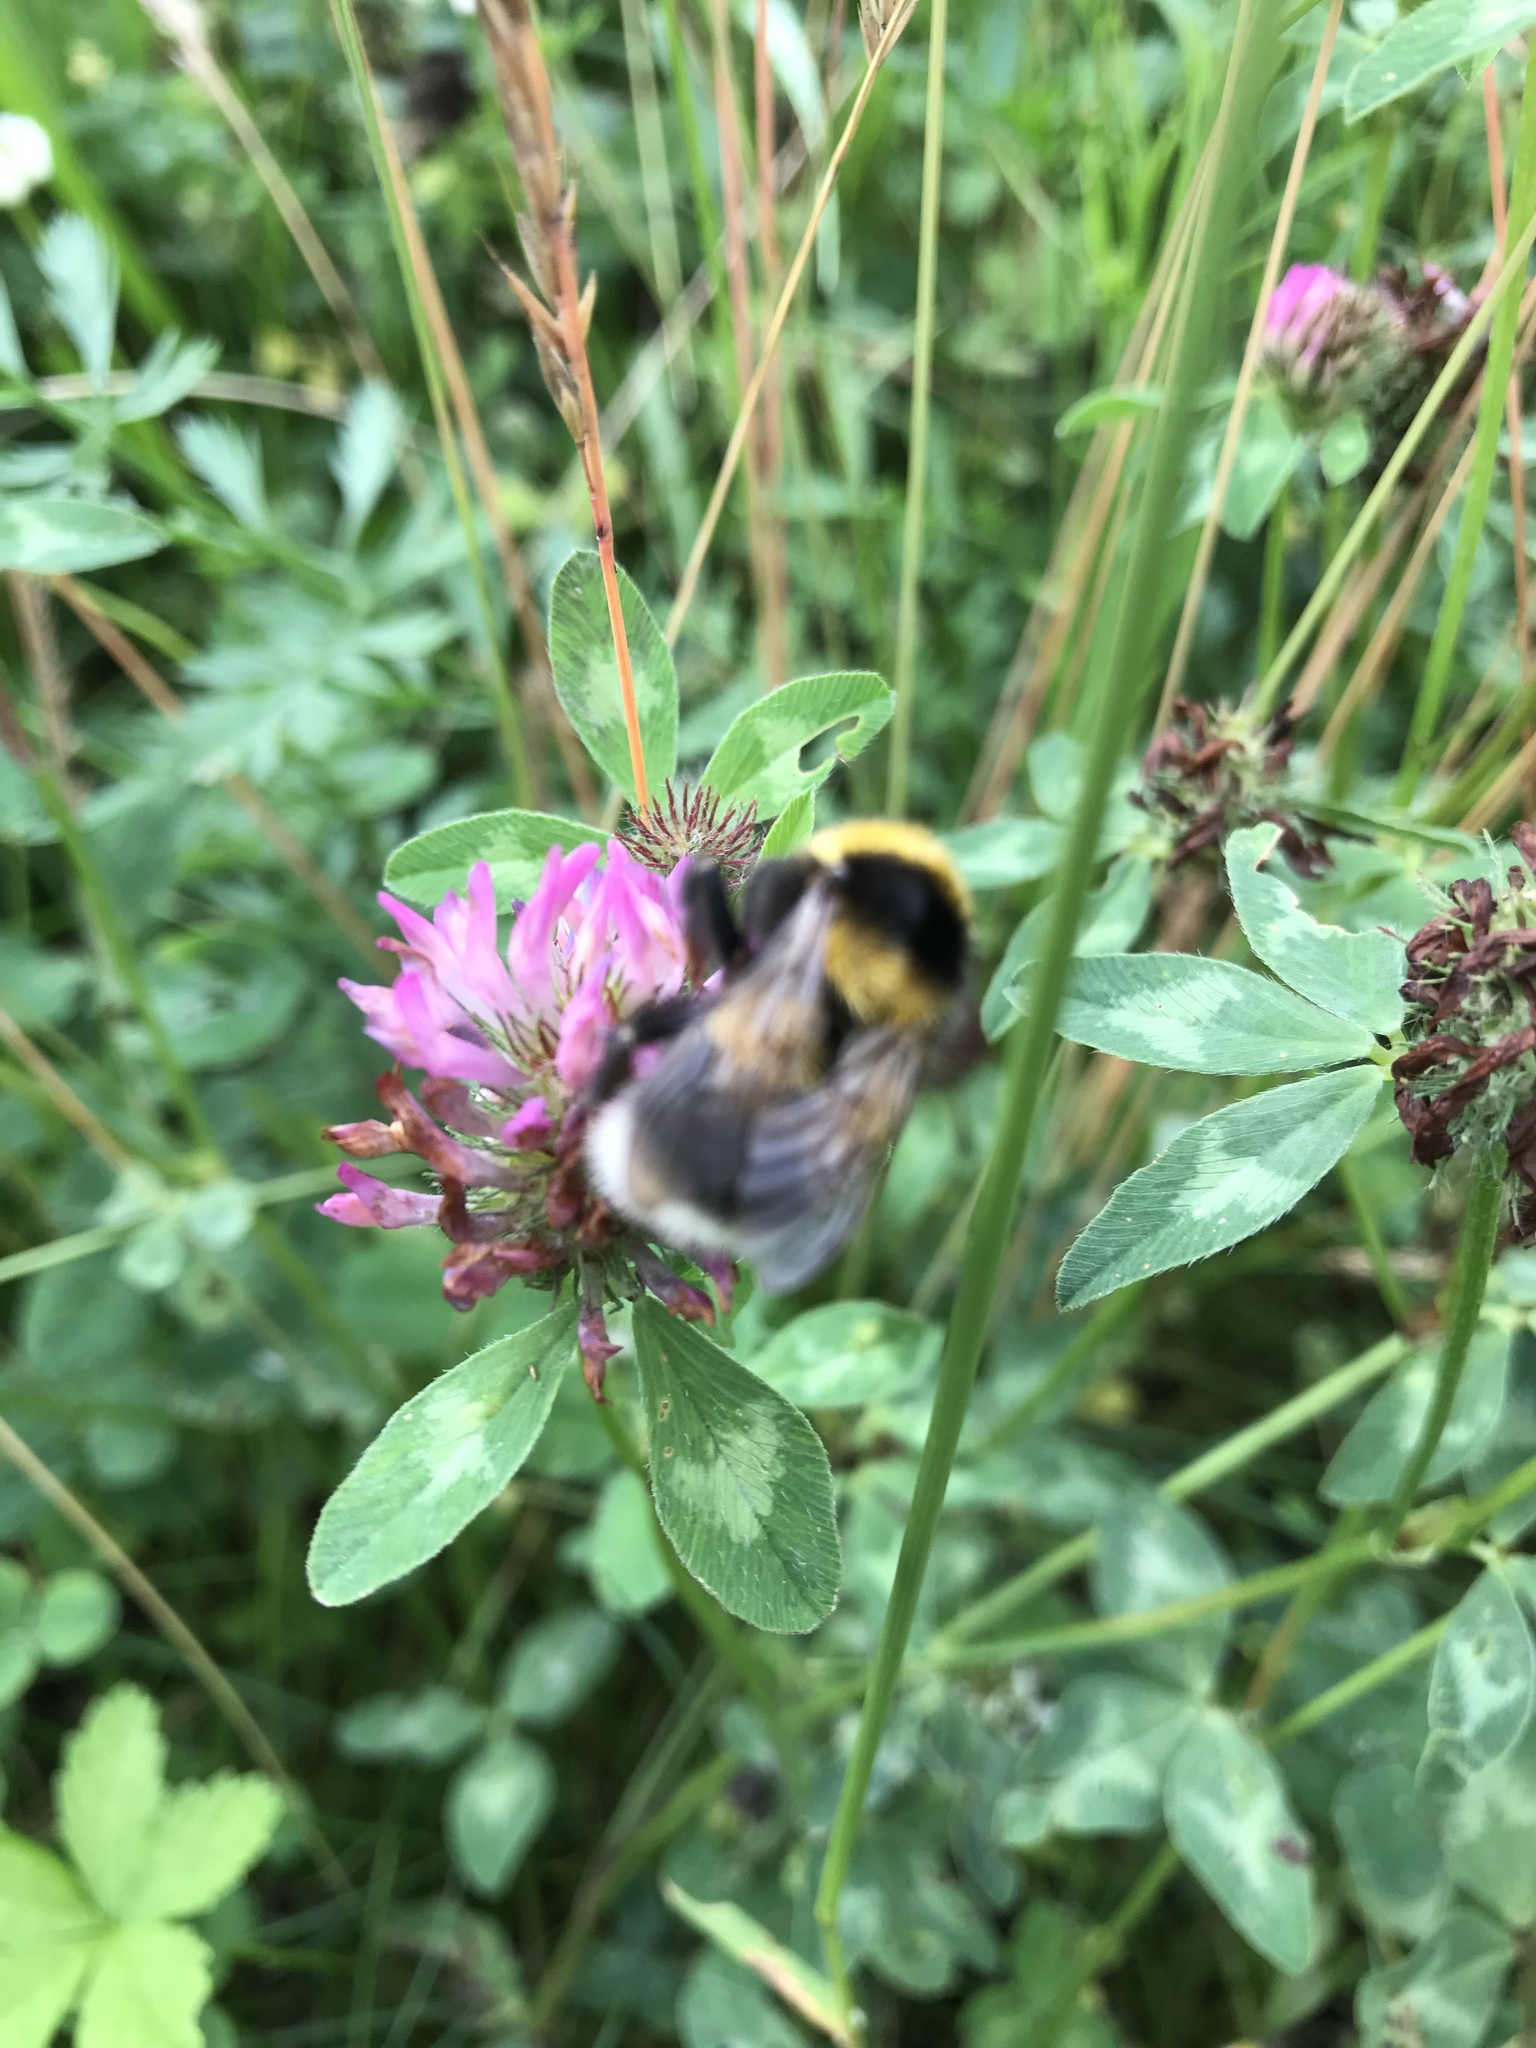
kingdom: Animalia
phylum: Arthropoda
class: Insecta
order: Hymenoptera
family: Apidae
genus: Bombus
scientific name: Bombus hortorum
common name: Garden bumblebee
